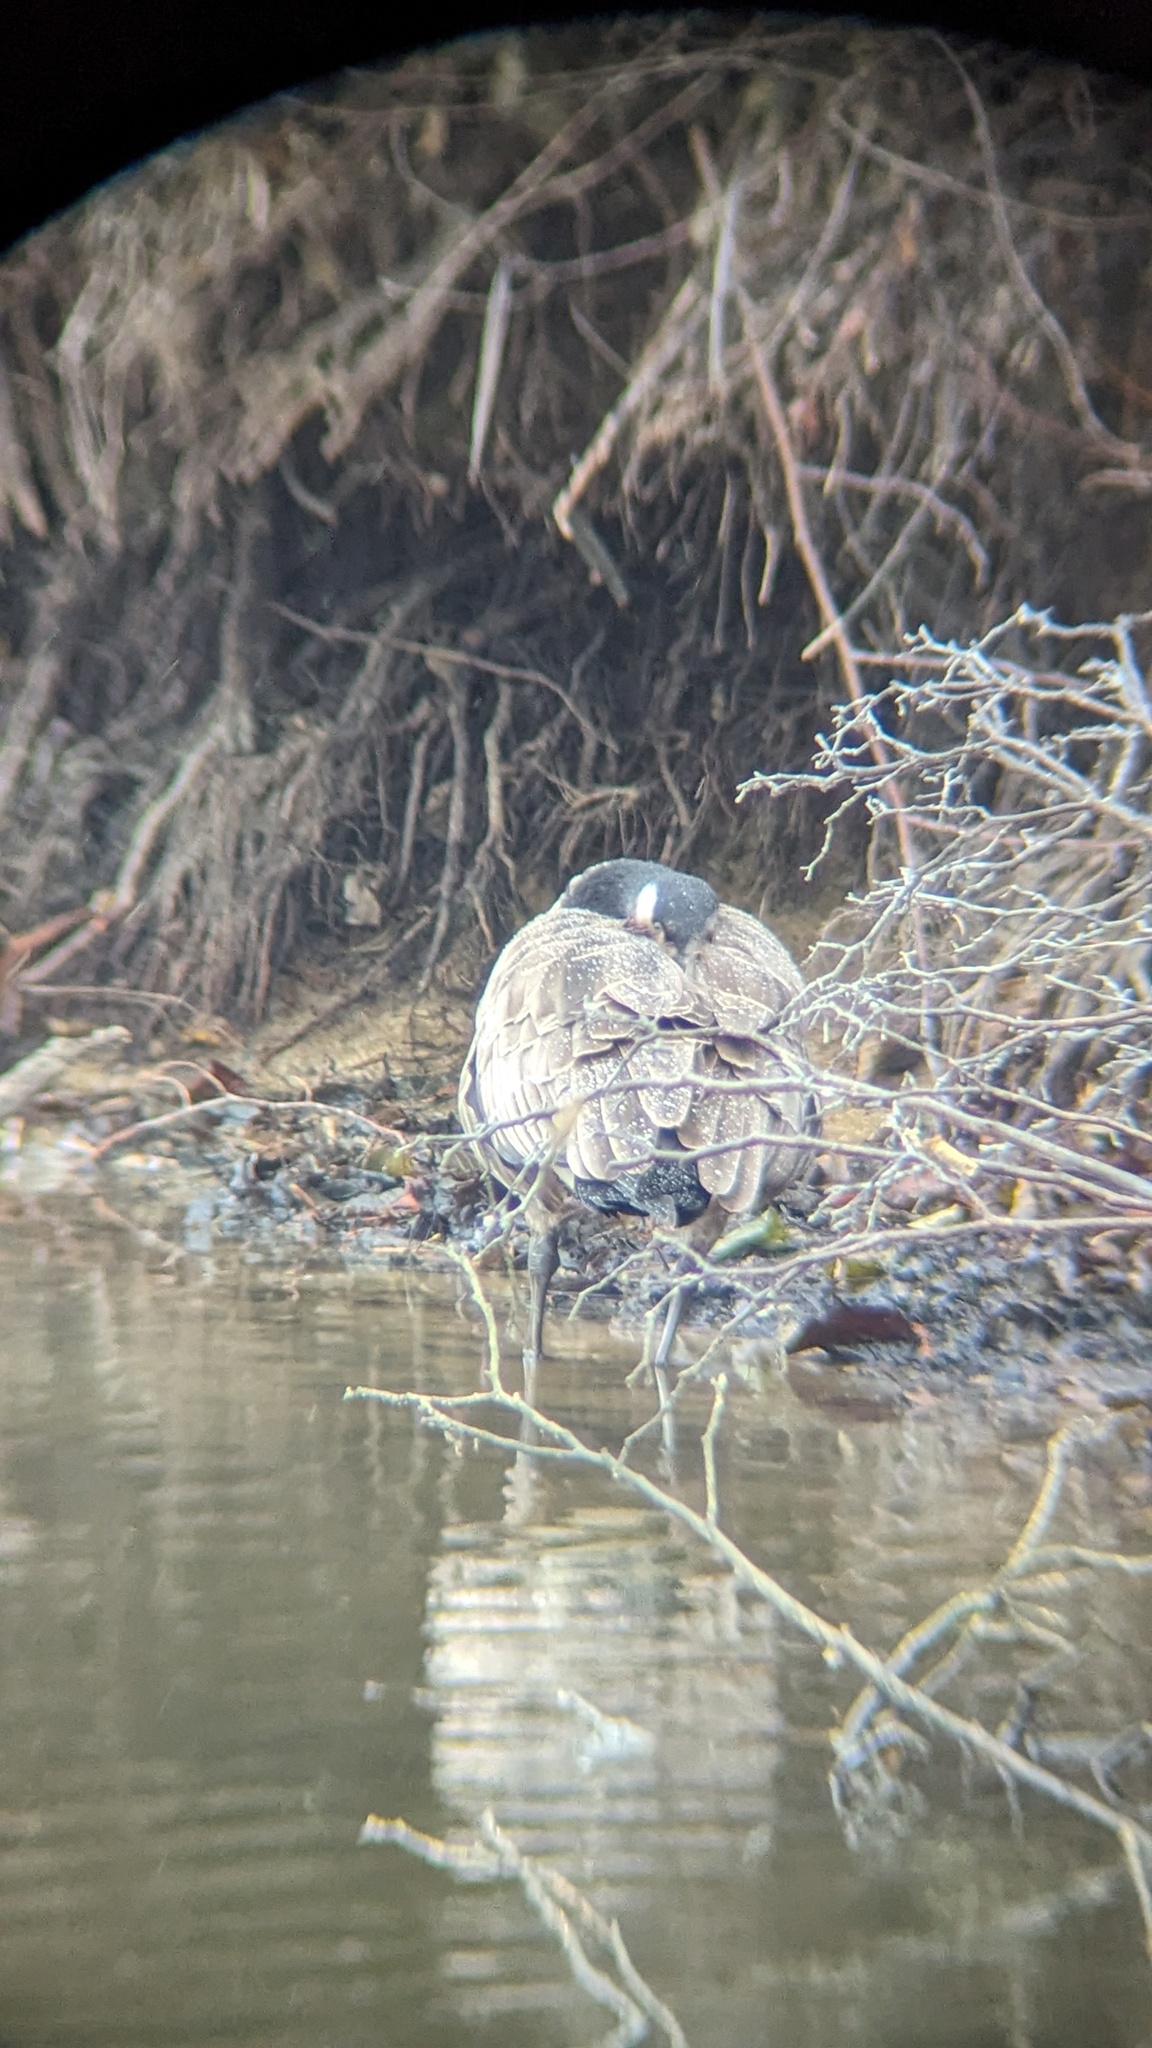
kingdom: Animalia
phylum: Chordata
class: Aves
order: Anseriformes
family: Anatidae
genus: Branta
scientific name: Branta canadensis
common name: Canada goose
